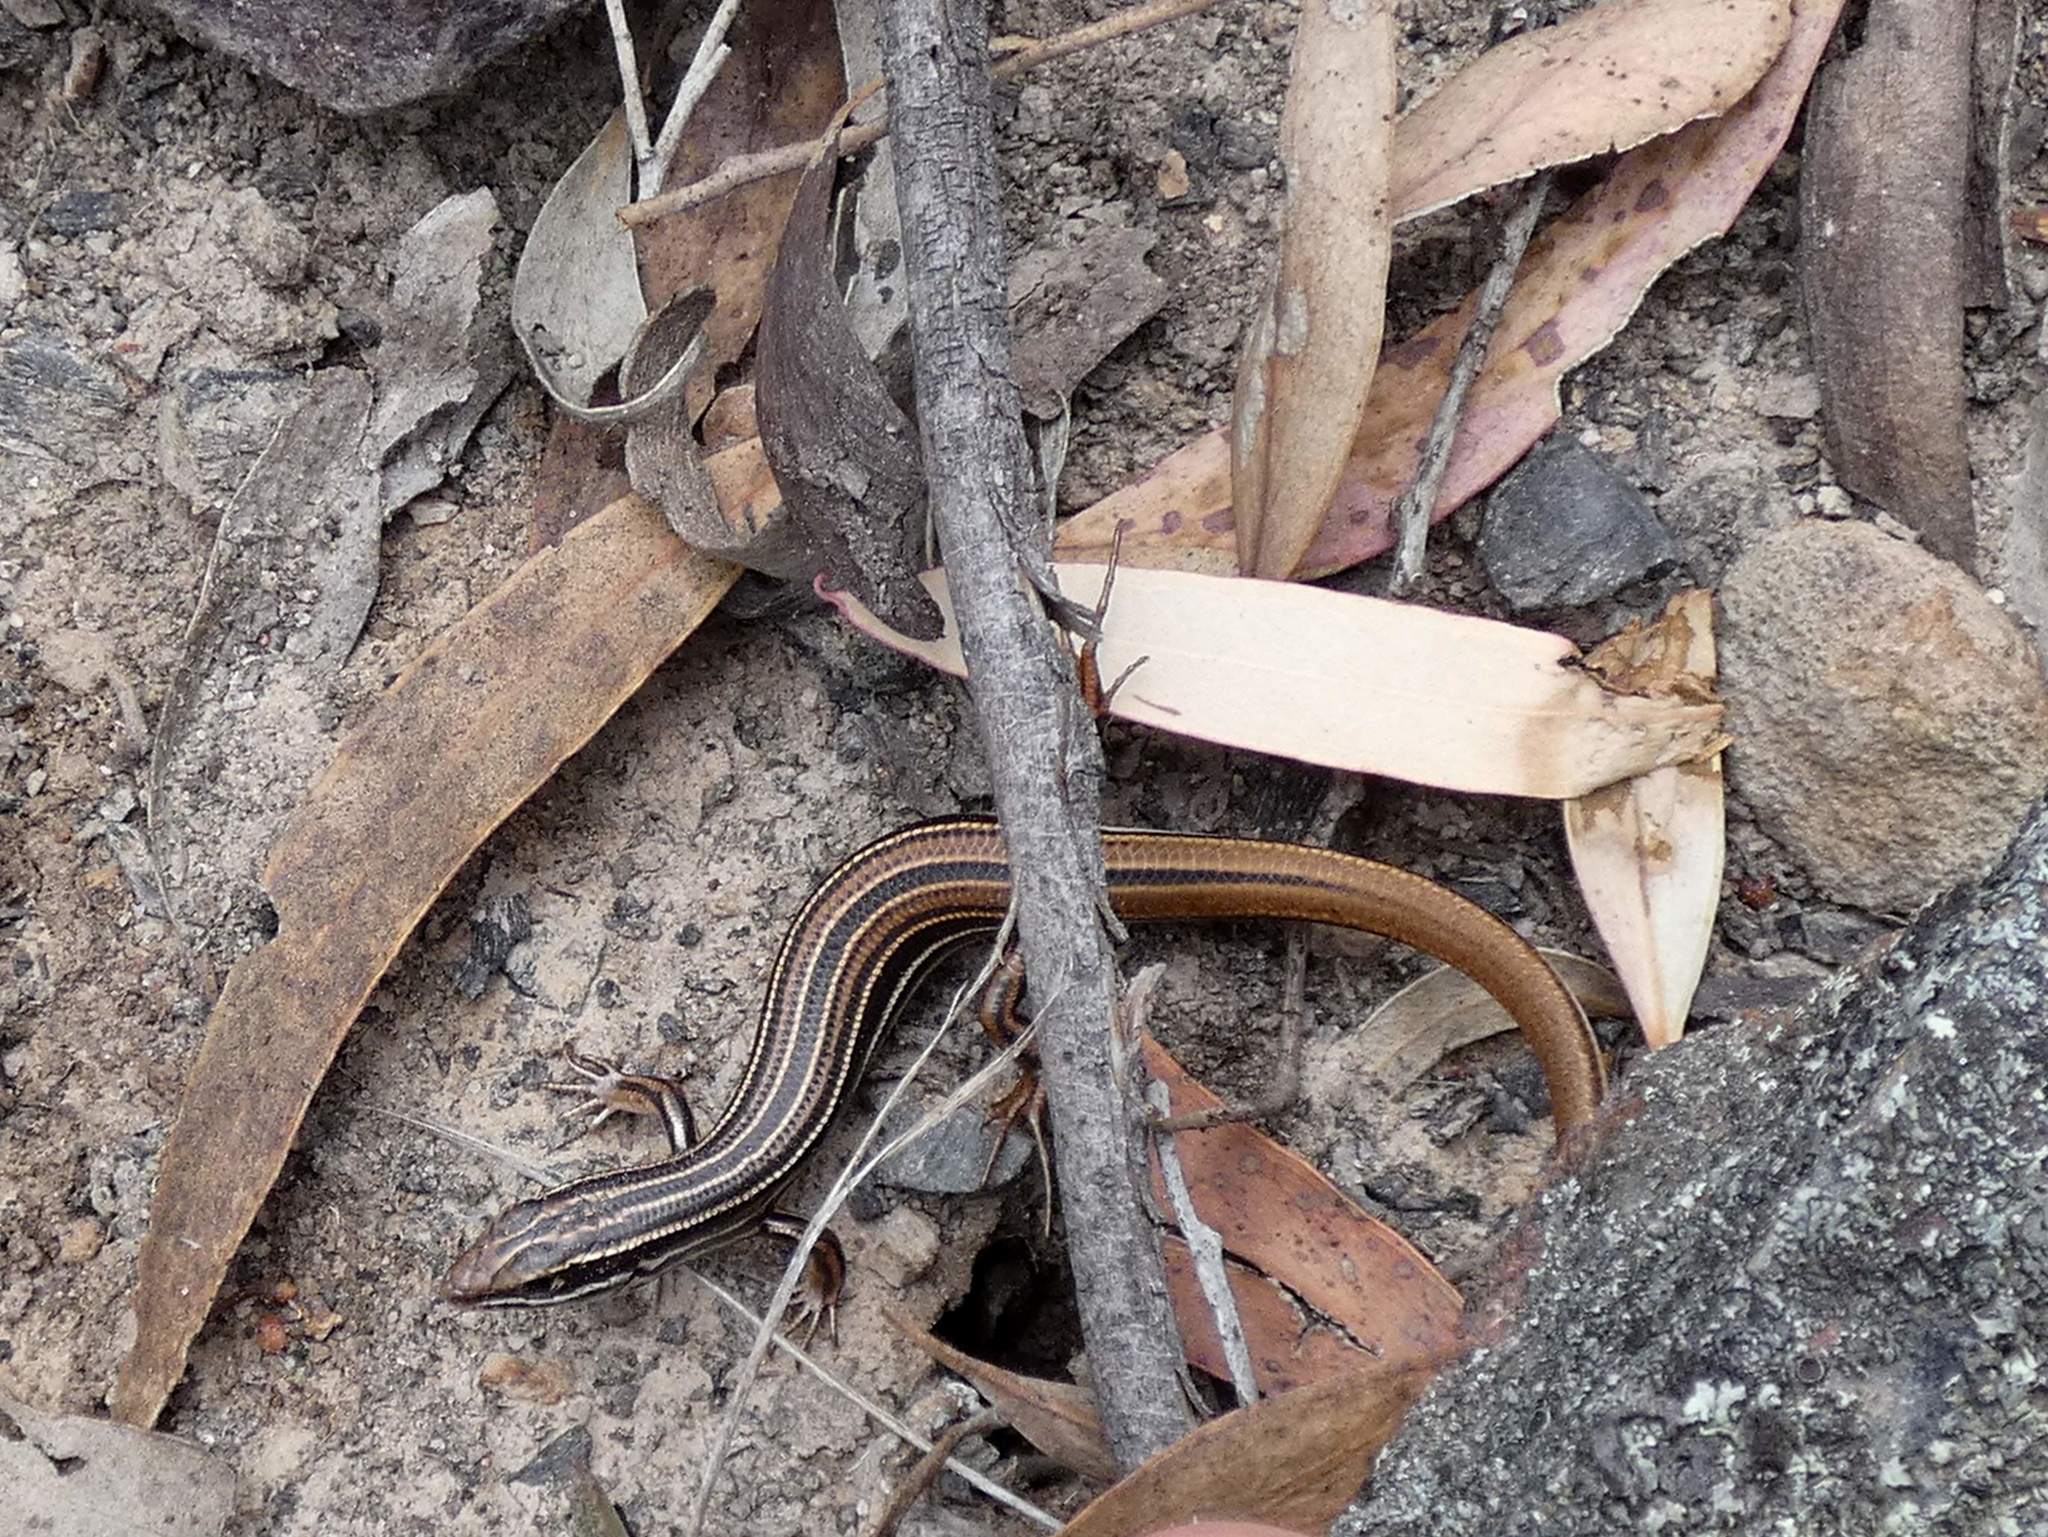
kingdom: Animalia
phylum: Chordata
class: Squamata
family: Scincidae
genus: Ctenotus
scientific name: Ctenotus taeniolatus
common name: Copper-tailed skink
